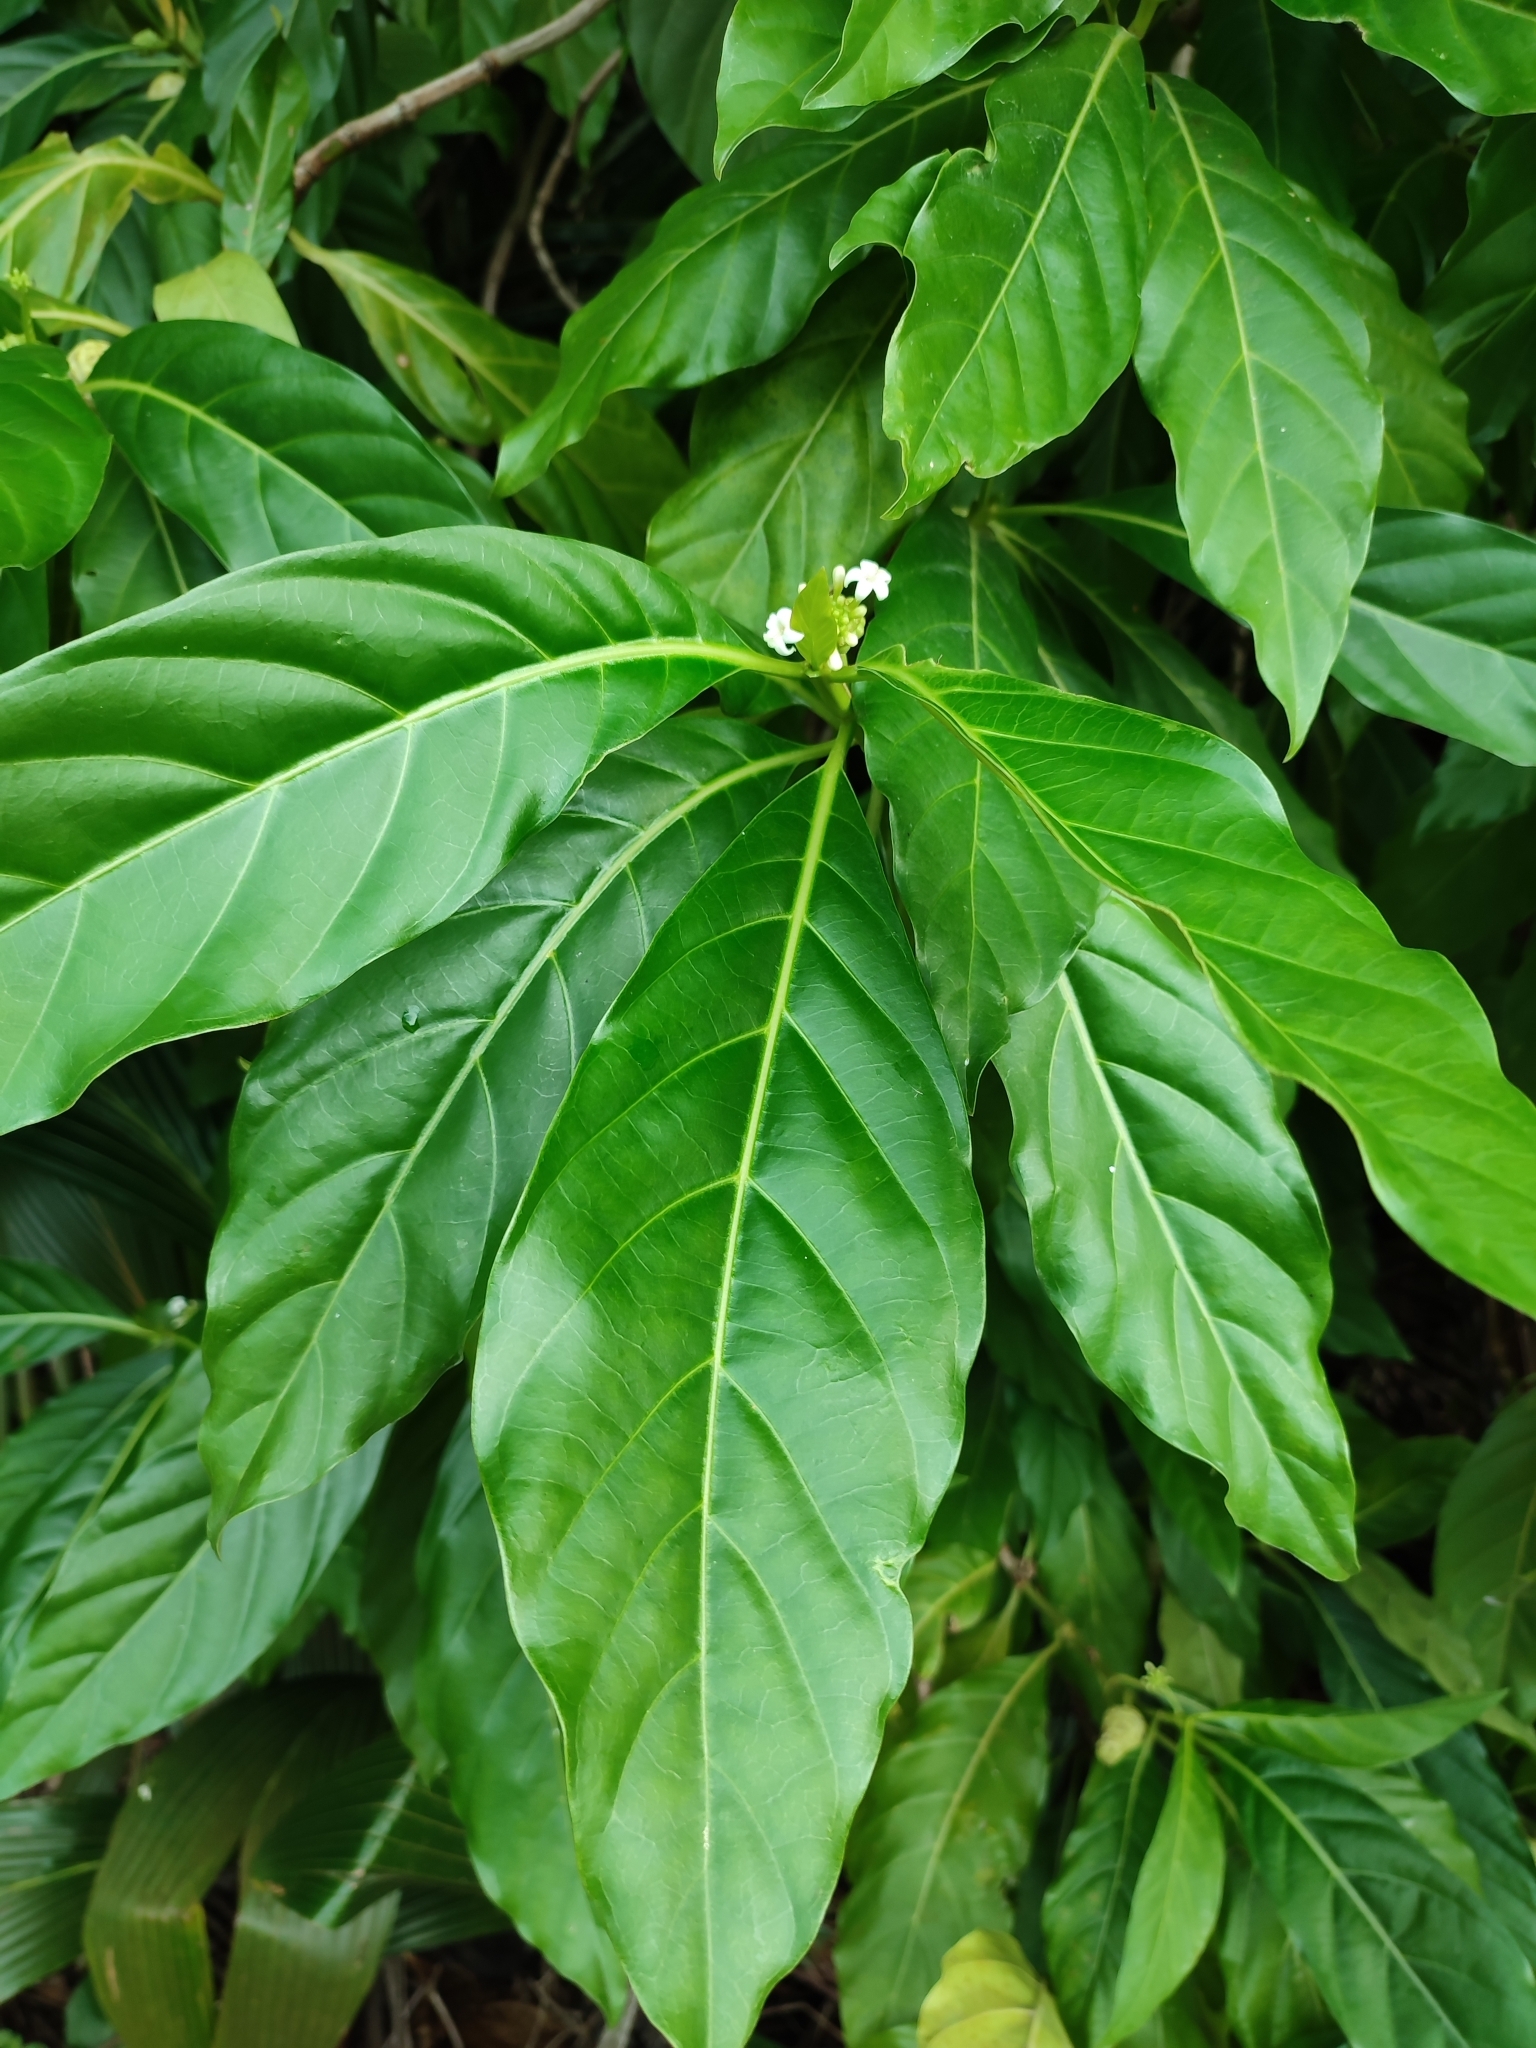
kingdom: Plantae
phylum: Tracheophyta
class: Magnoliopsida
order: Gentianales
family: Rubiaceae
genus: Morinda
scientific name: Morinda citrifolia
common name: Indian-mulberry
